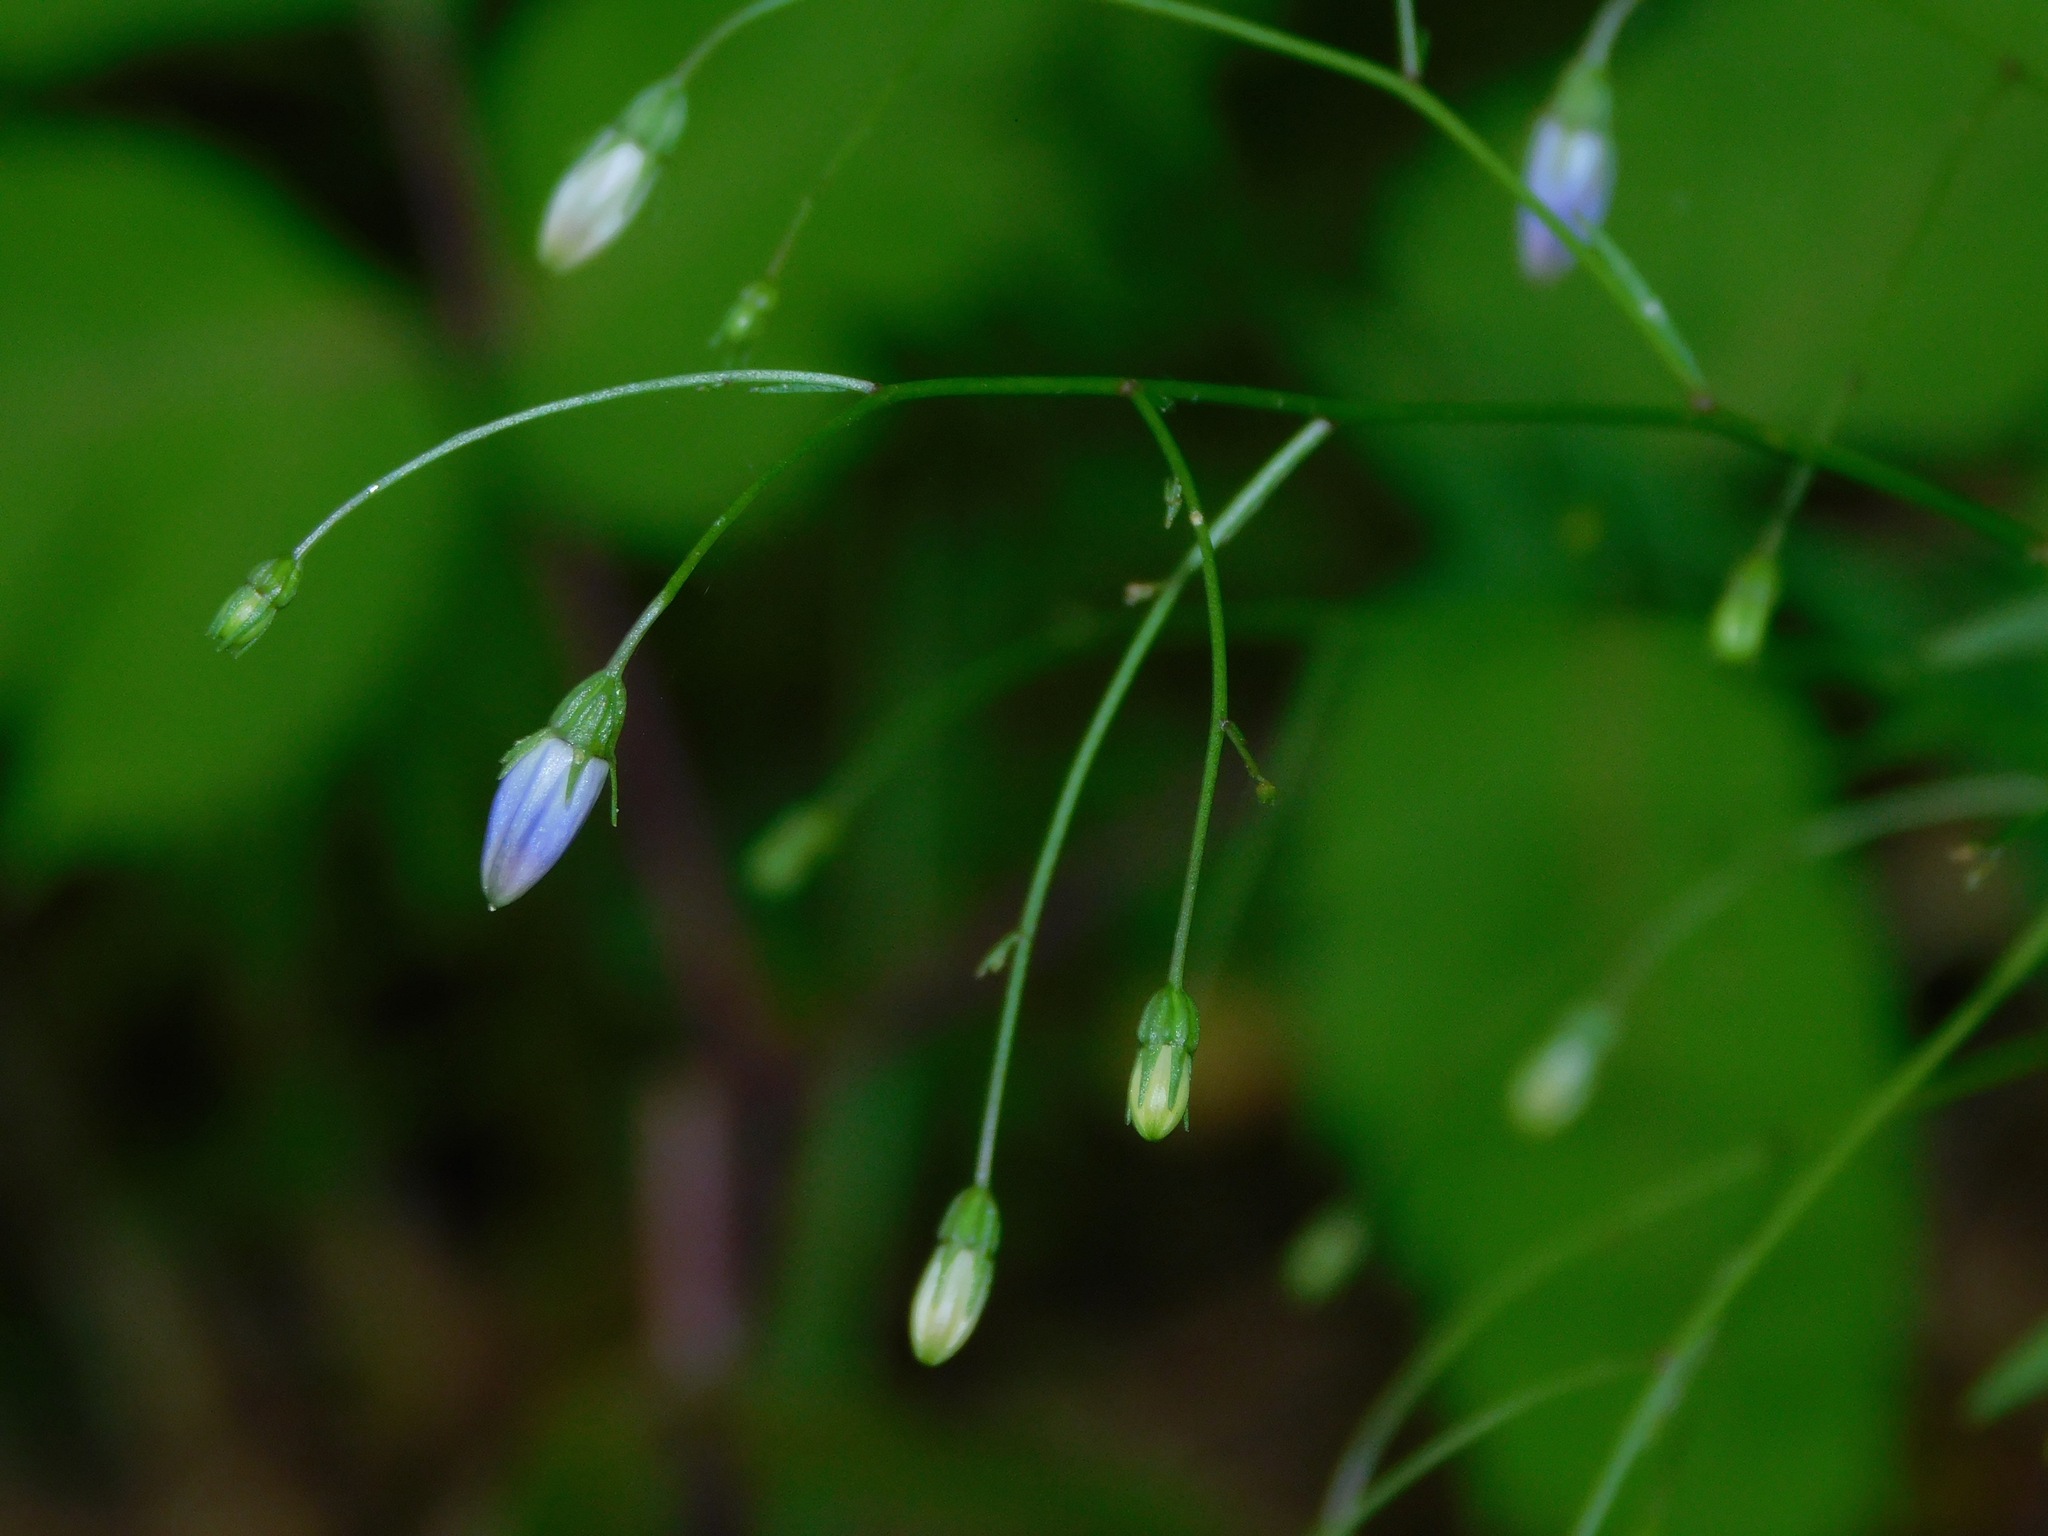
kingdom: Plantae
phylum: Tracheophyta
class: Magnoliopsida
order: Asterales
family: Campanulaceae
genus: Campanula
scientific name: Campanula divaricata
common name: Appalachian bellflower
